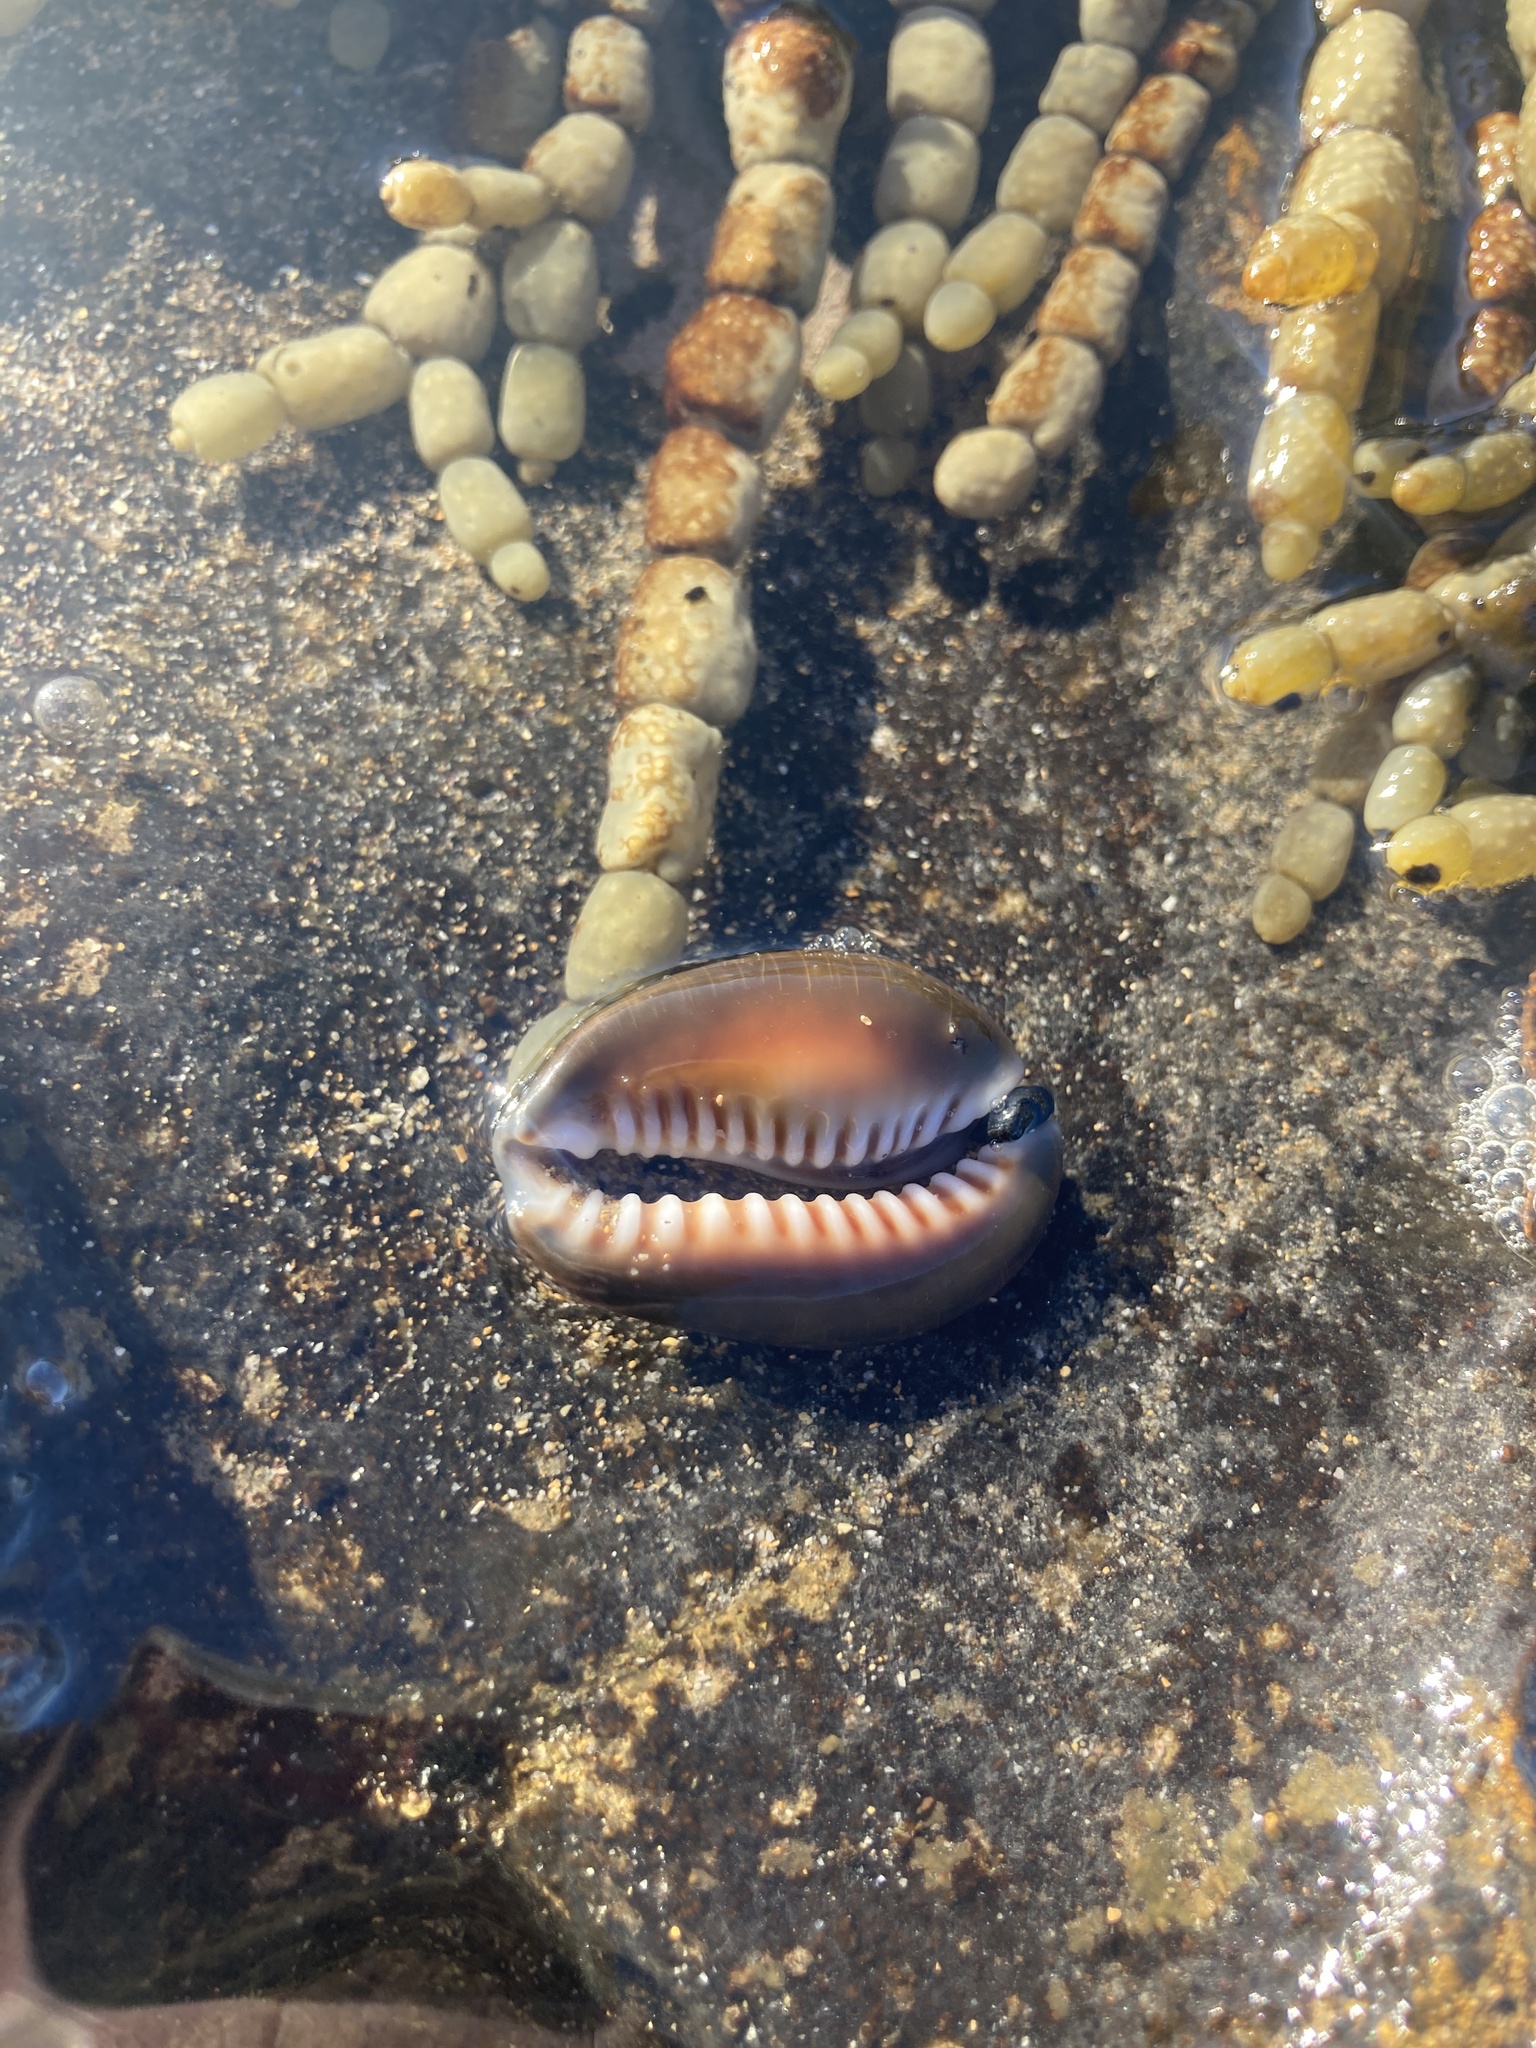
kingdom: Animalia
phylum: Mollusca
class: Gastropoda
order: Littorinimorpha
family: Cypraeidae
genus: Monetaria
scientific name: Monetaria caputserpentis
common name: Serpent's head cowrie
